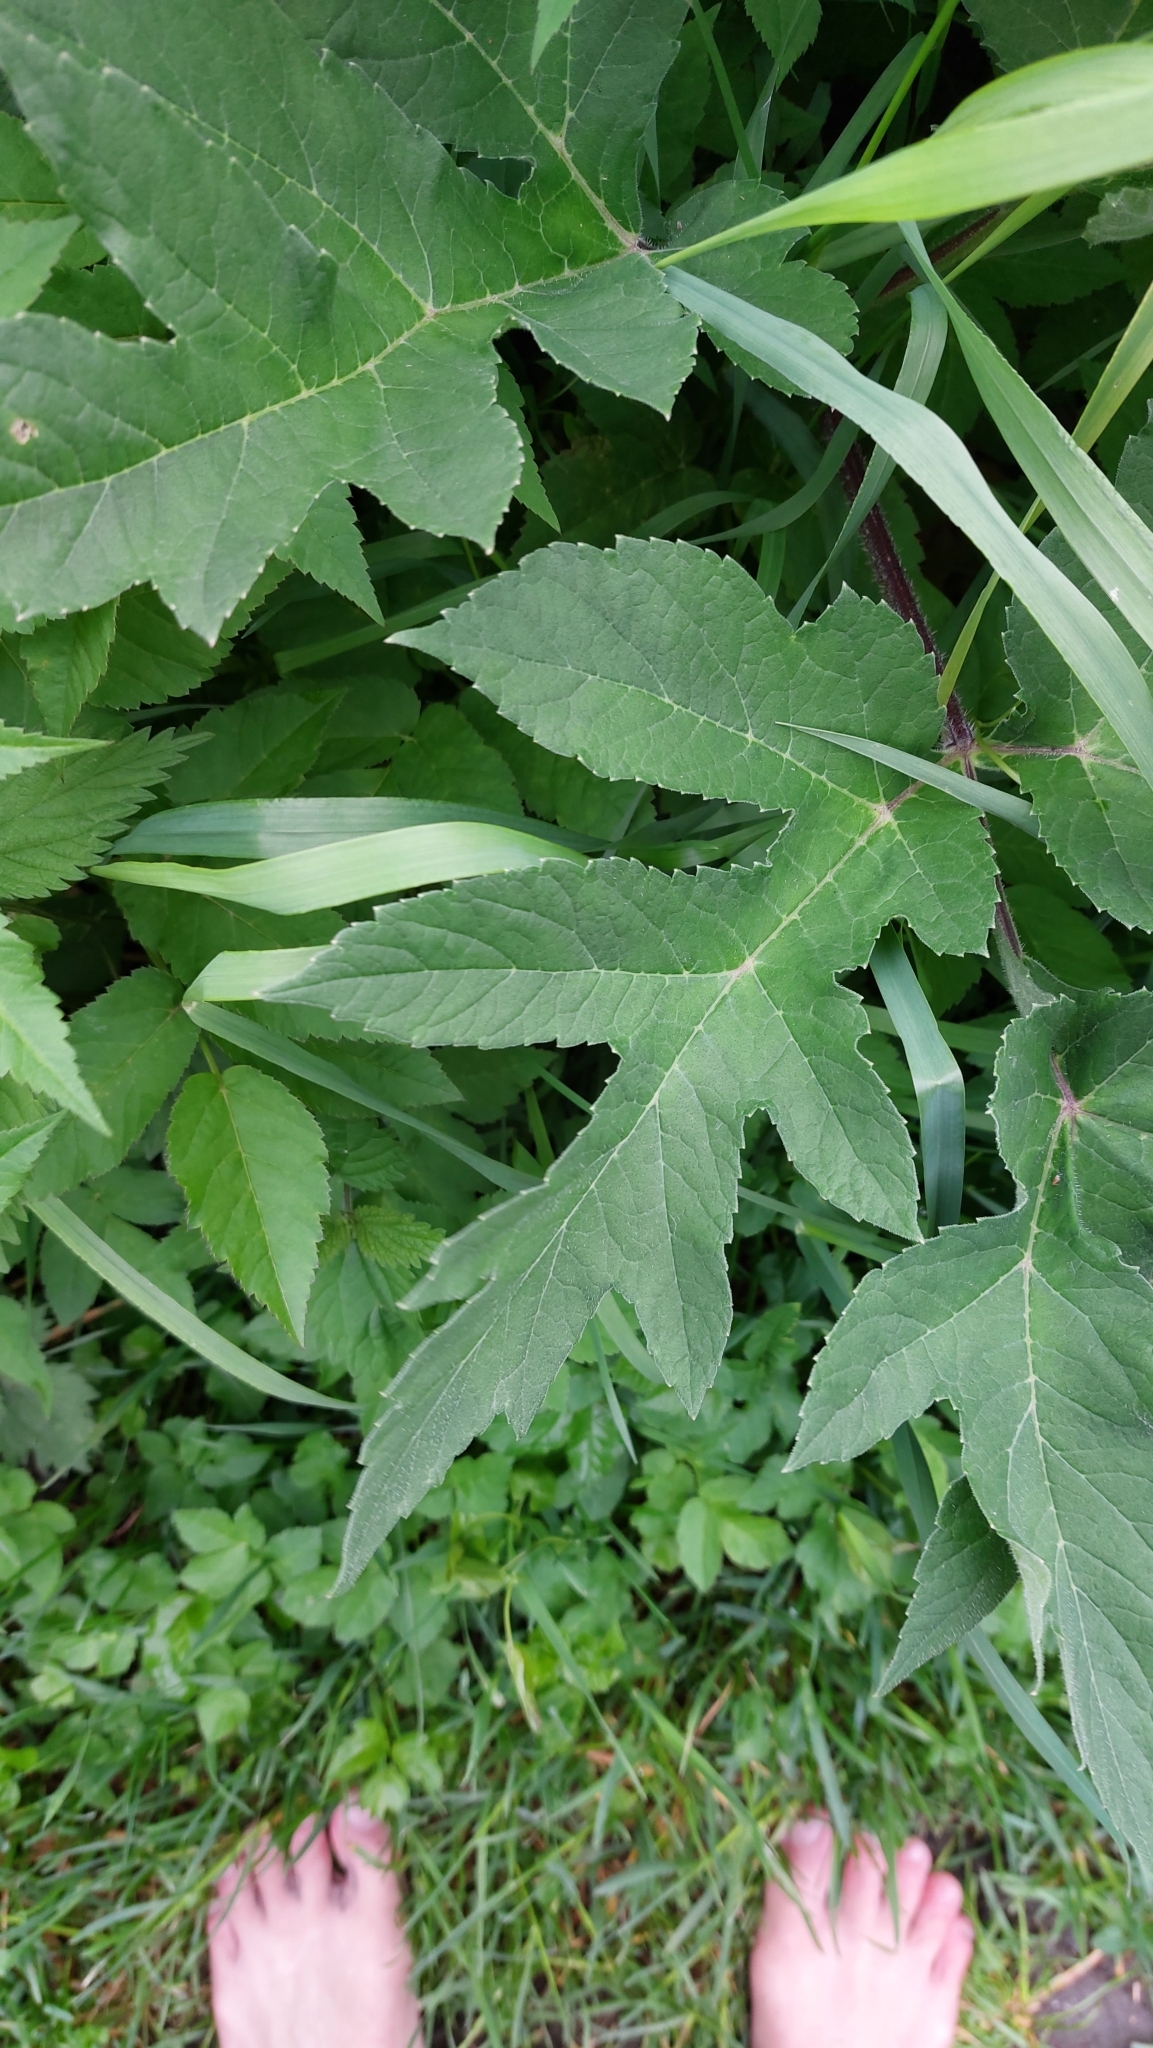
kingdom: Plantae
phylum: Tracheophyta
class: Magnoliopsida
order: Apiales
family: Apiaceae
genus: Heracleum
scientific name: Heracleum sphondylium
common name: Hogweed
